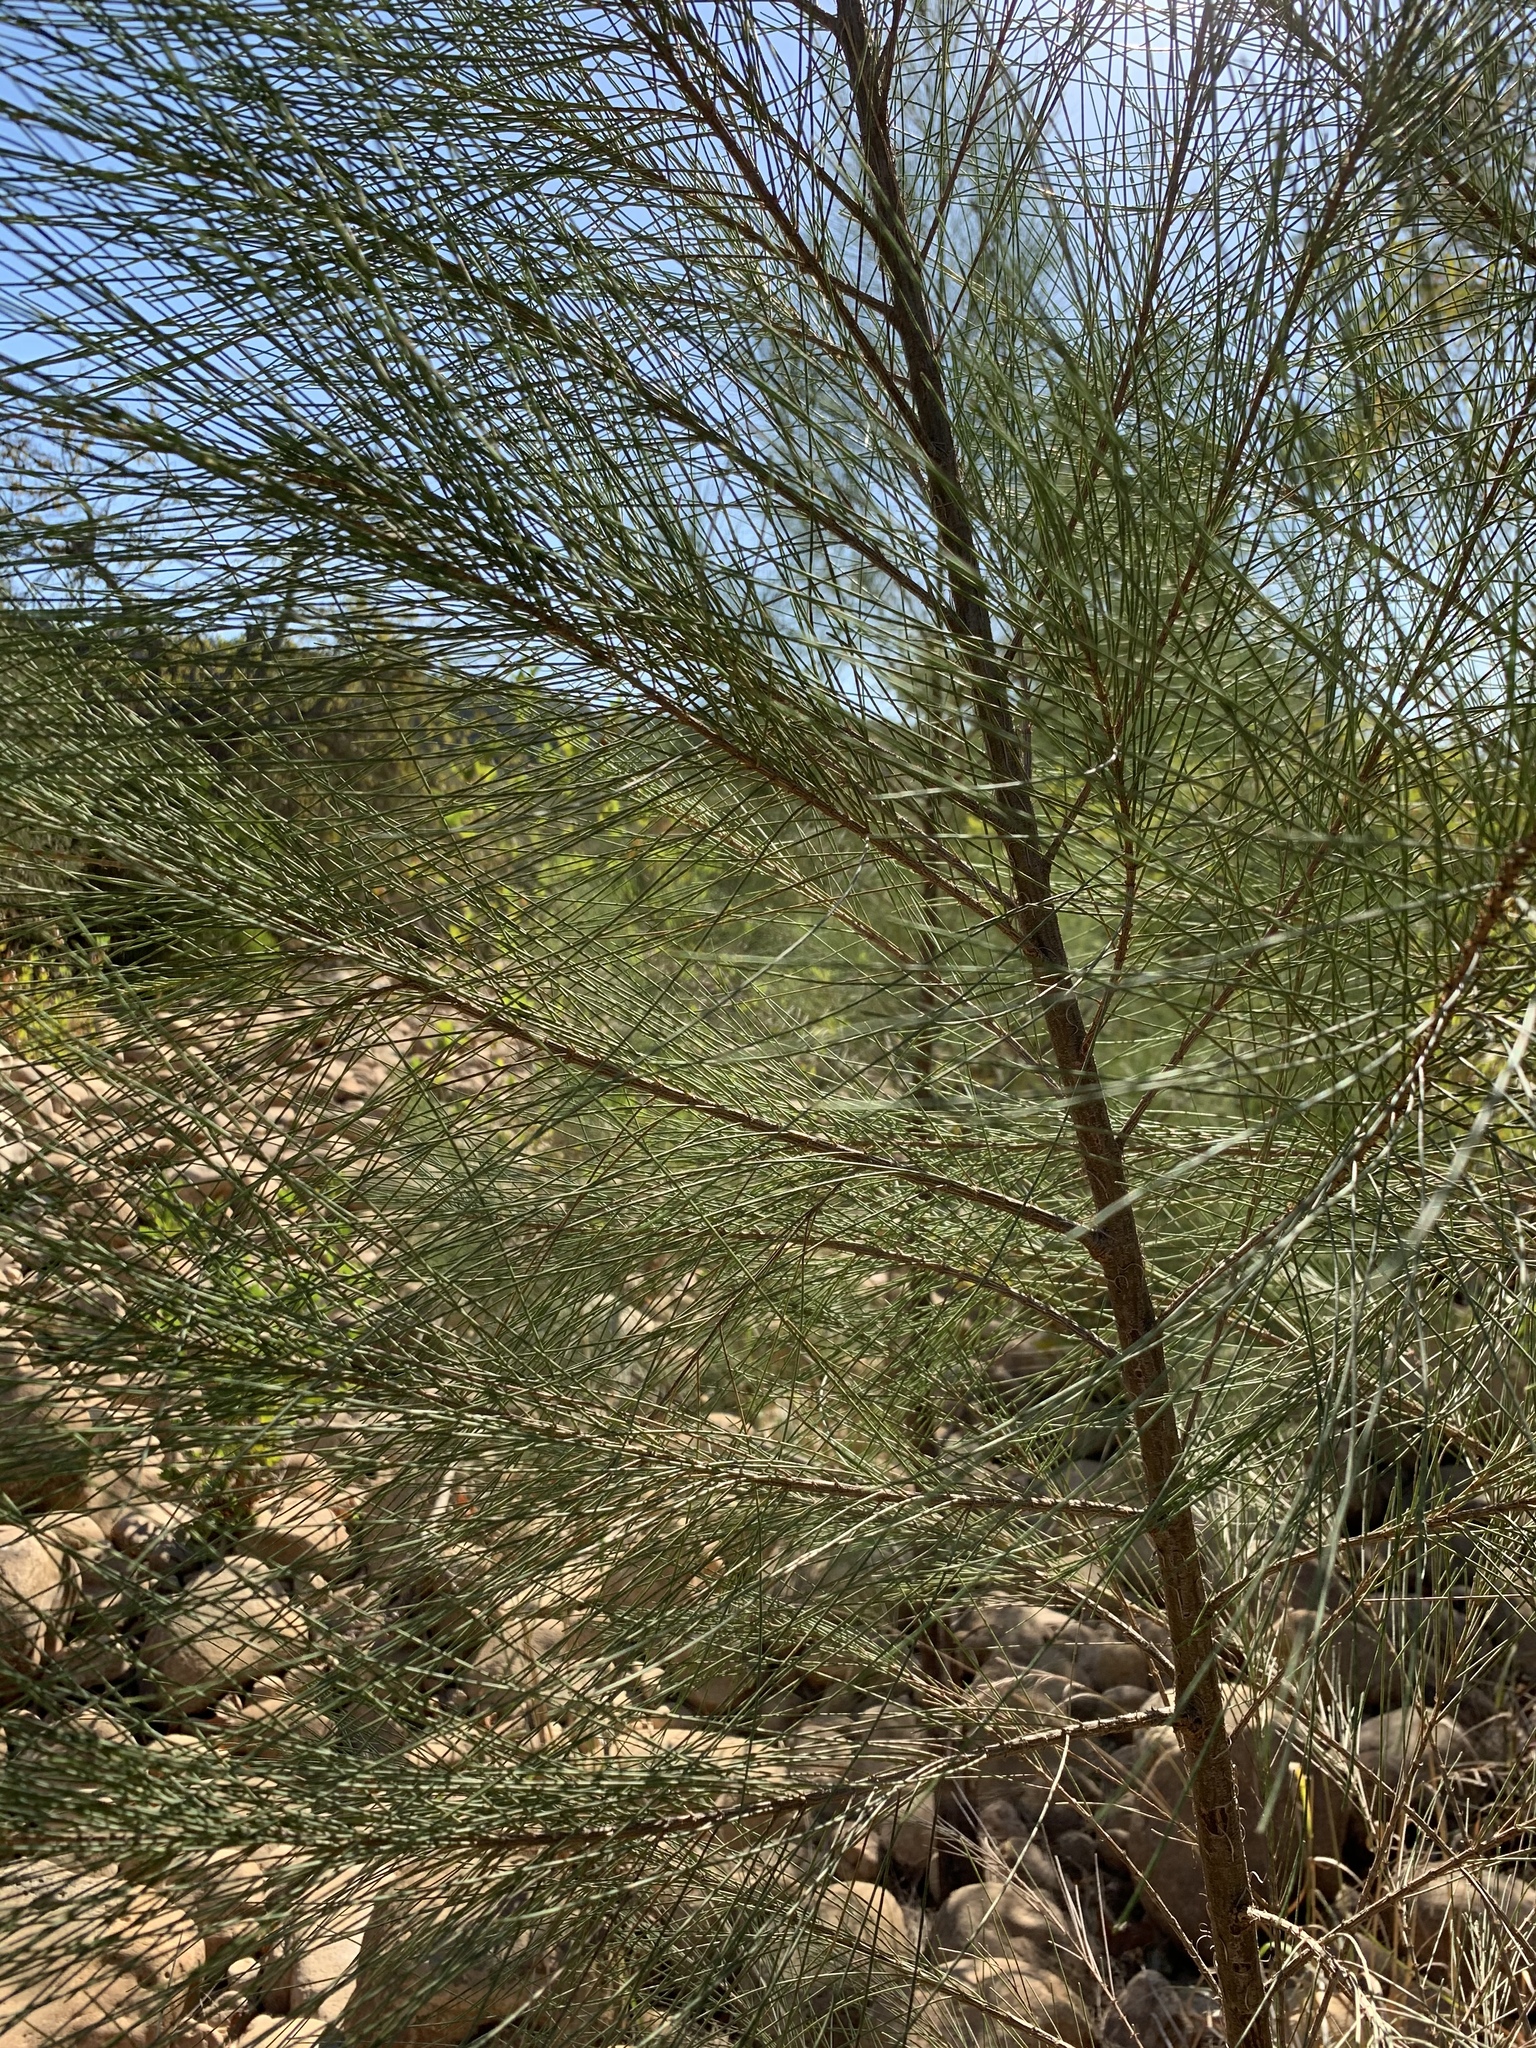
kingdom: Plantae
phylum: Tracheophyta
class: Magnoliopsida
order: Fagales
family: Casuarinaceae
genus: Casuarina
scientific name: Casuarina cunninghamiana
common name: River sheoak
